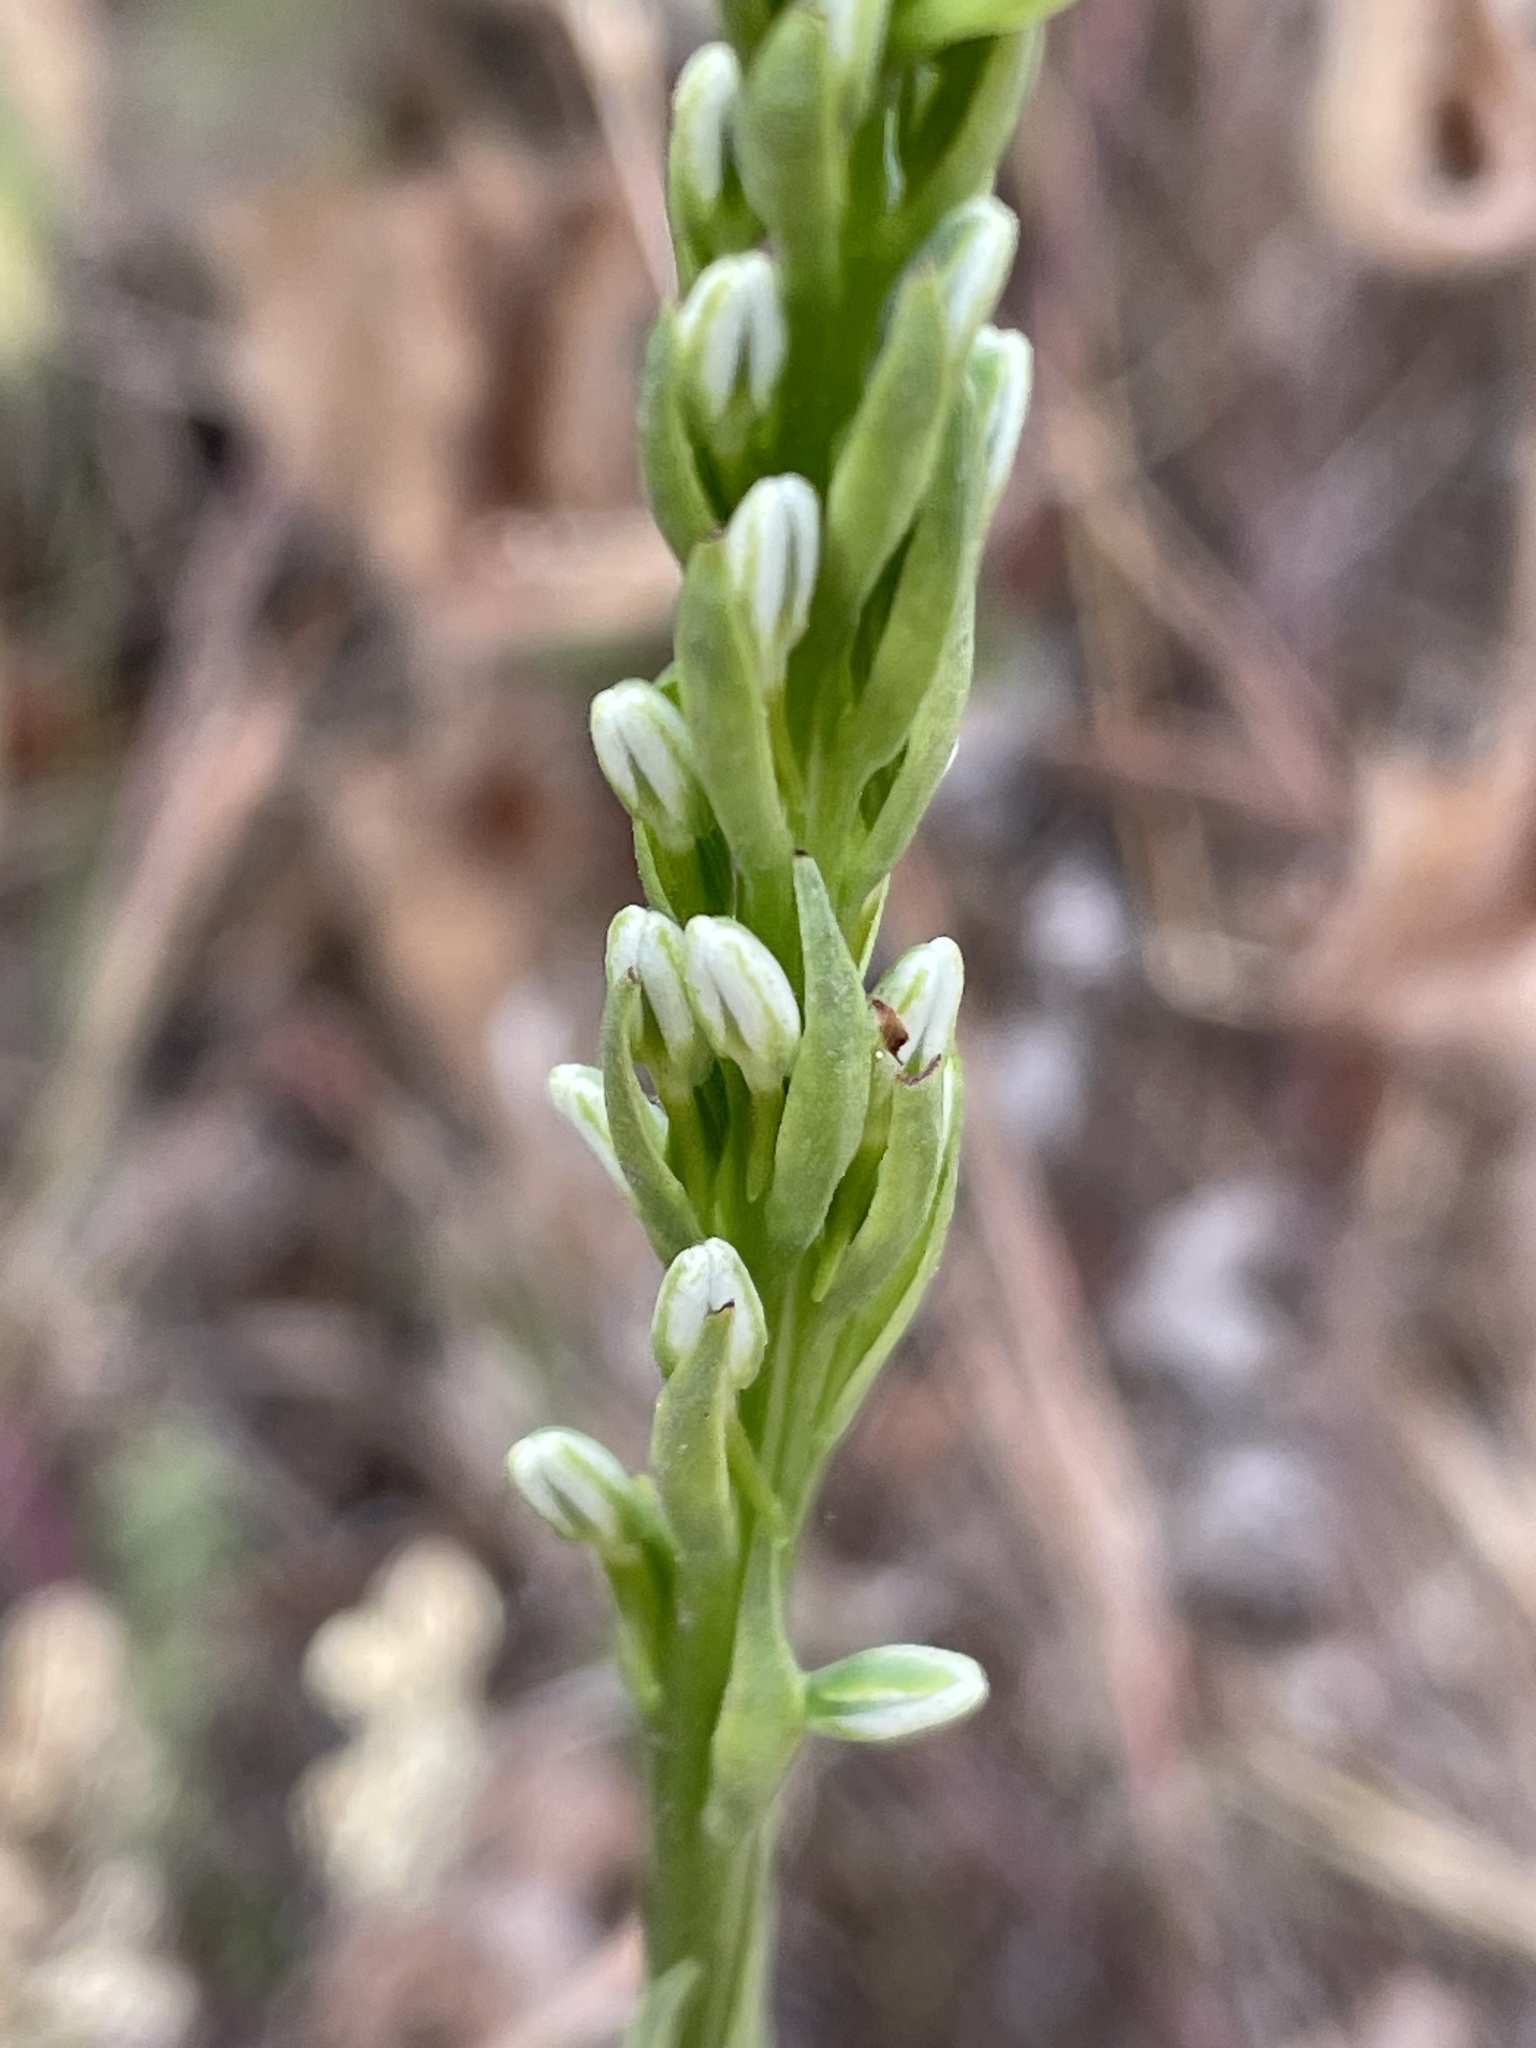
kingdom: Plantae
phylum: Tracheophyta
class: Liliopsida
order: Asparagales
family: Orchidaceae
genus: Platanthera
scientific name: Platanthera elegans
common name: Coast piperia
